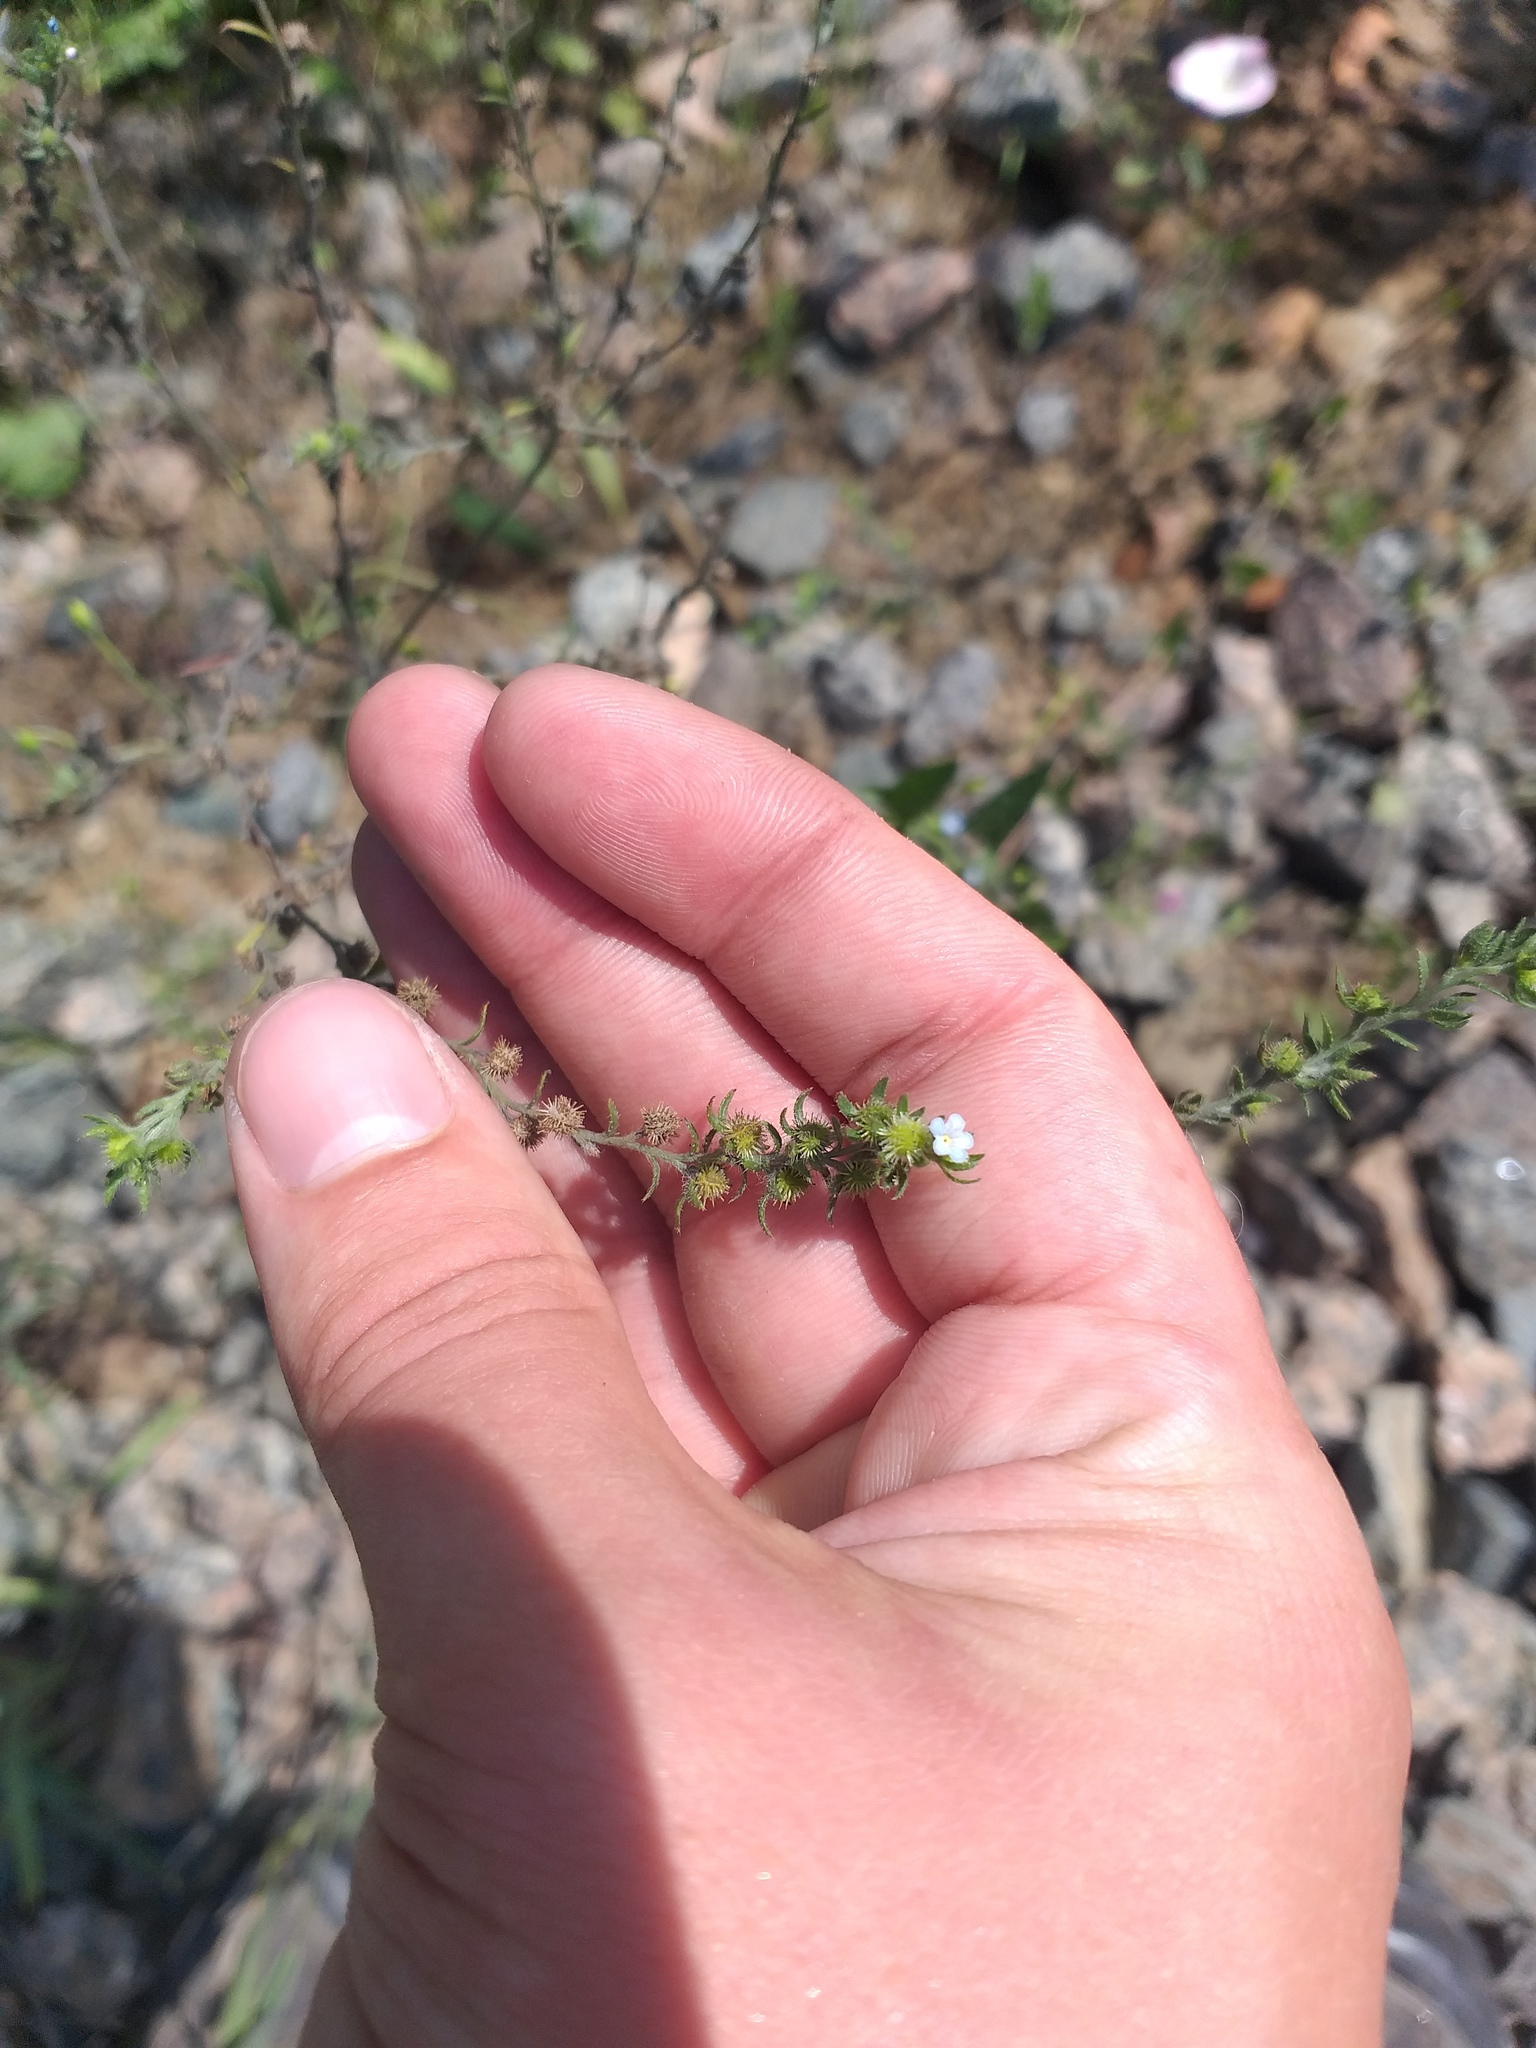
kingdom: Plantae
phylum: Tracheophyta
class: Magnoliopsida
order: Boraginales
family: Boraginaceae
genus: Lappula
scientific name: Lappula squarrosa
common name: European stickseed
